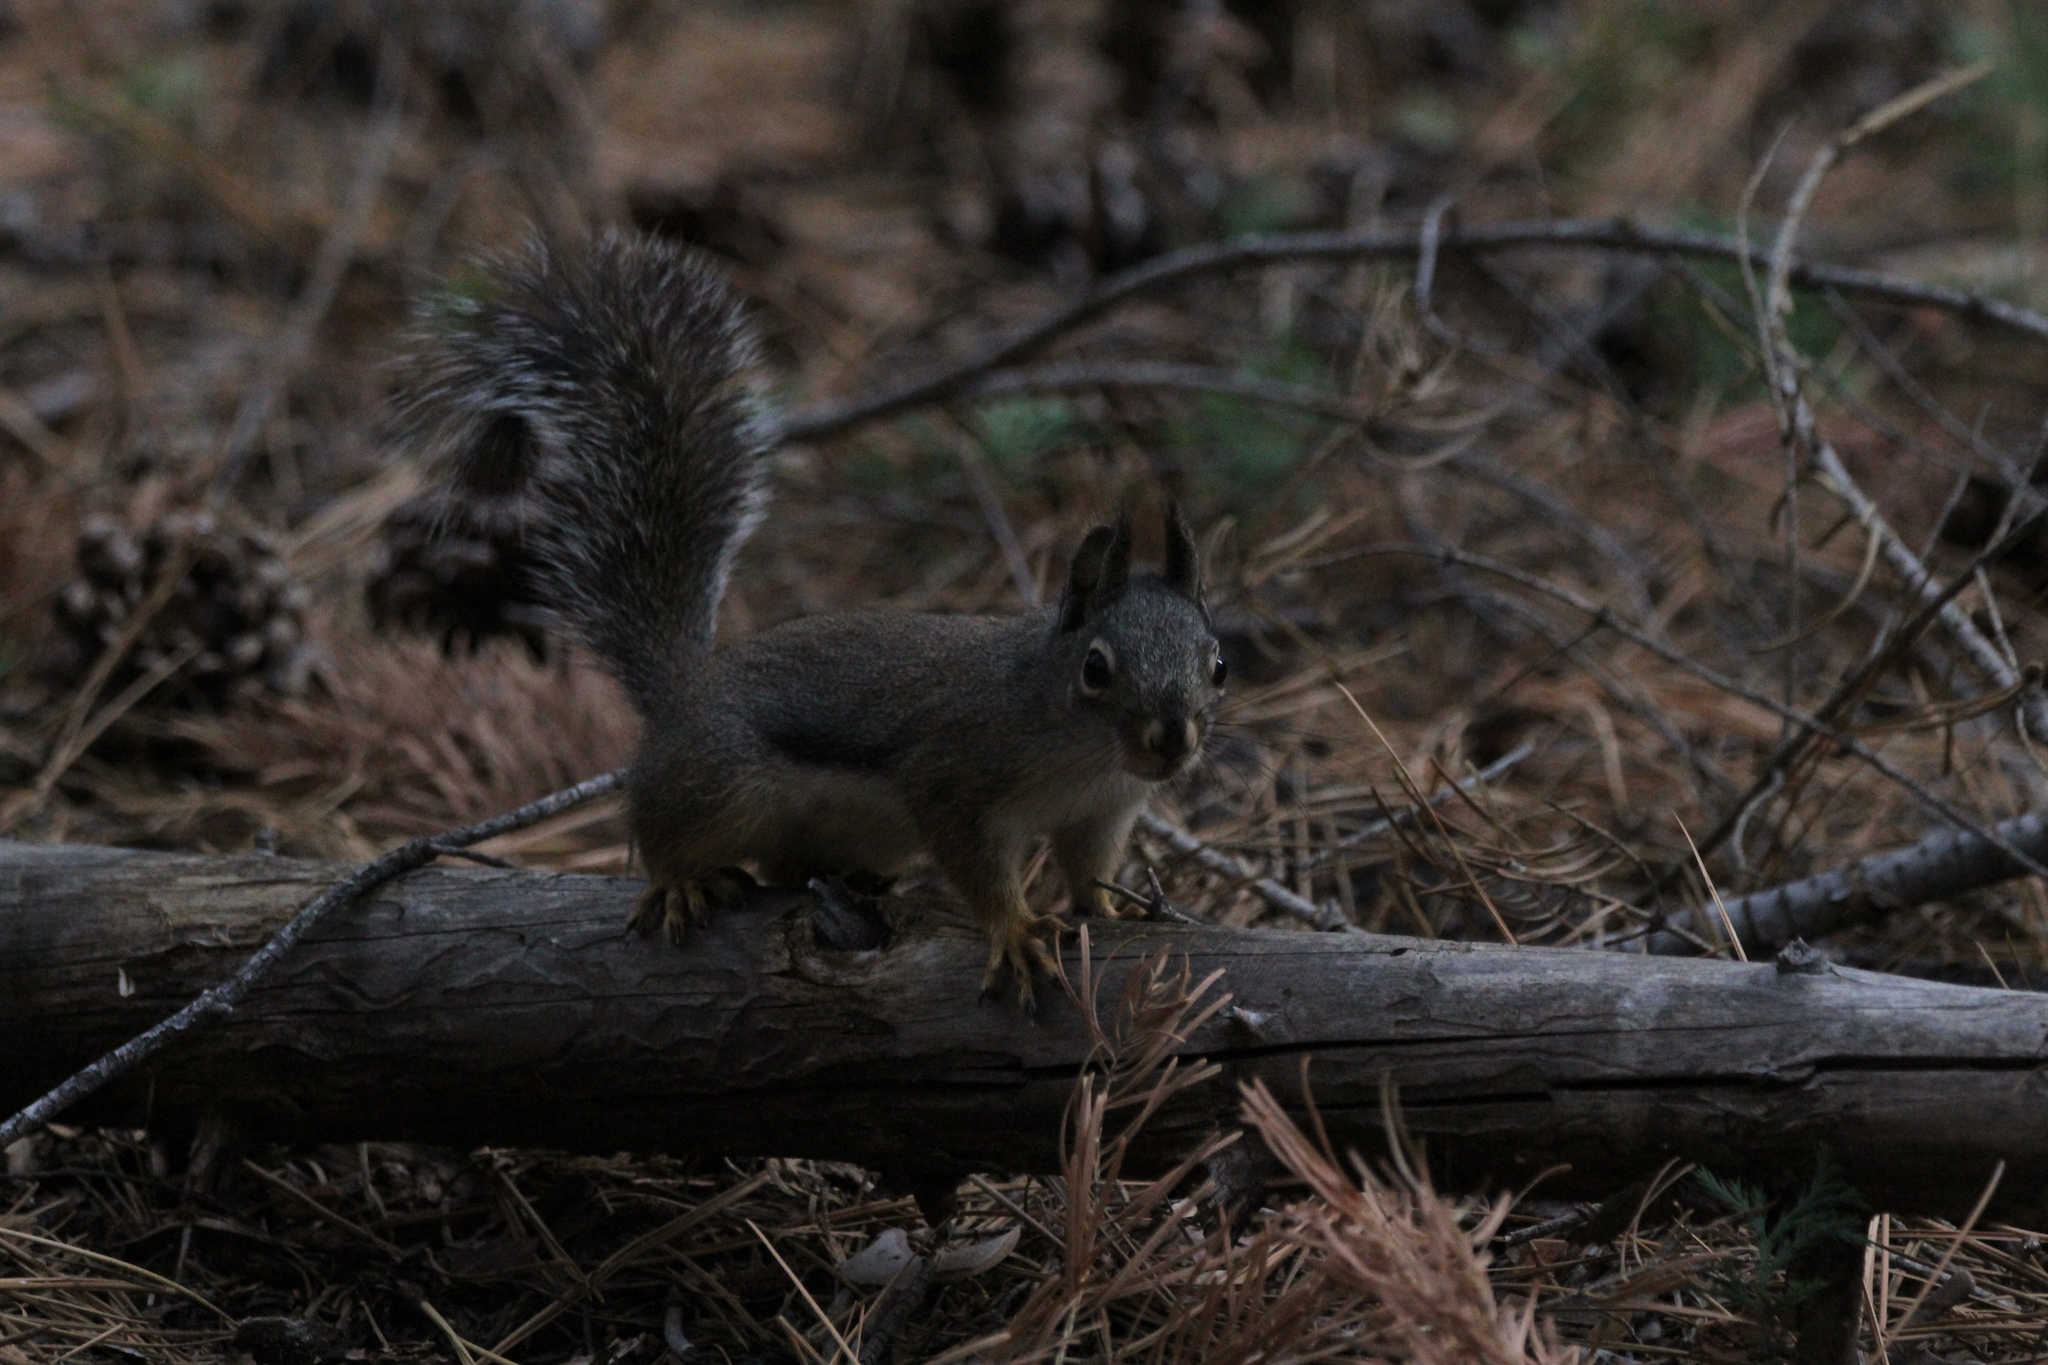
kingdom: Animalia
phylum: Chordata
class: Mammalia
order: Rodentia
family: Sciuridae
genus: Tamiasciurus
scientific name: Tamiasciurus douglasii
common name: Douglas's squirrel
